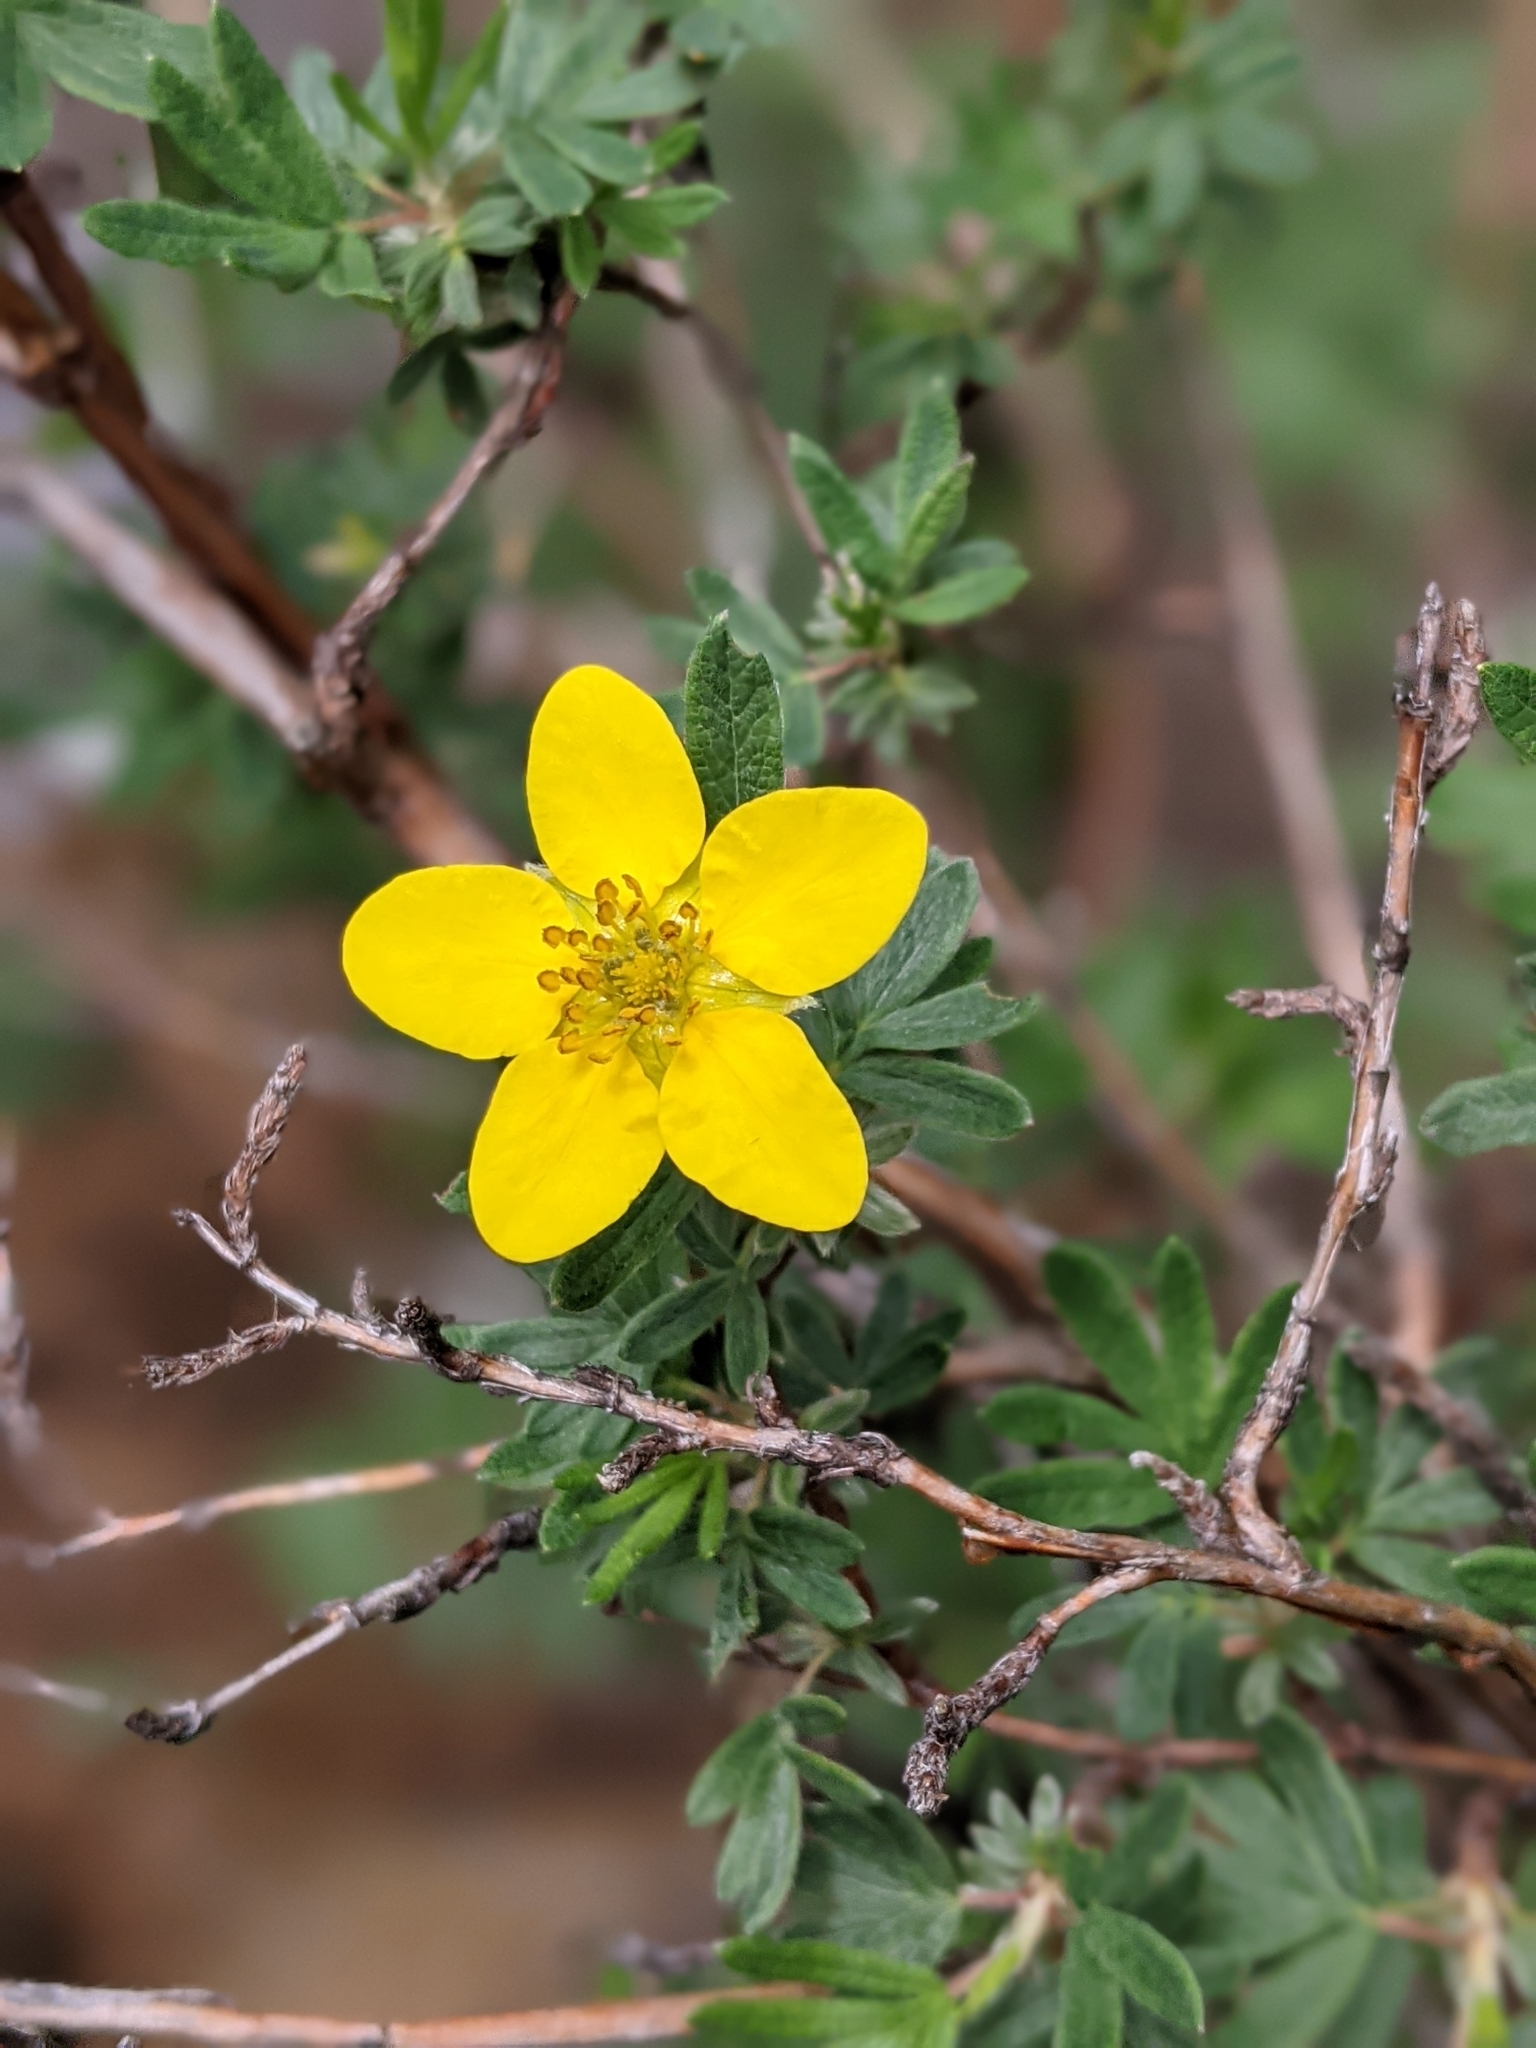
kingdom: Plantae
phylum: Tracheophyta
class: Magnoliopsida
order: Rosales
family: Rosaceae
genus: Dasiphora
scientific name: Dasiphora fruticosa
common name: Shrubby cinquefoil
